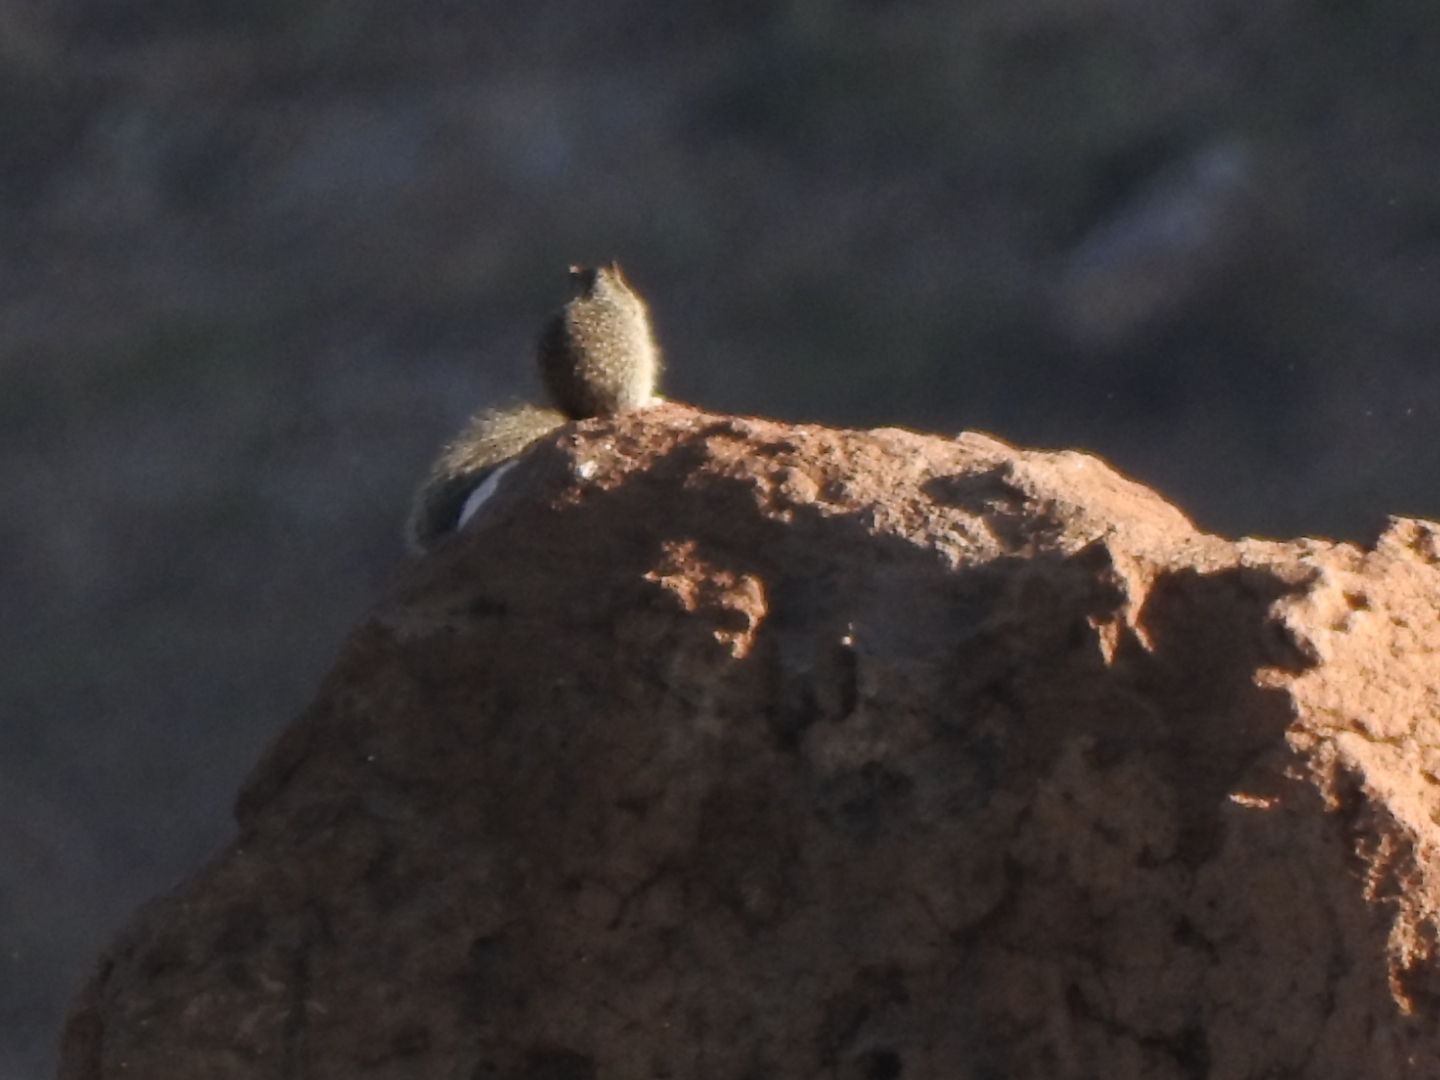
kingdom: Animalia
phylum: Chordata
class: Mammalia
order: Rodentia
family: Sciuridae
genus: Otospermophilus
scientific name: Otospermophilus variegatus
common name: Rock squirrel
